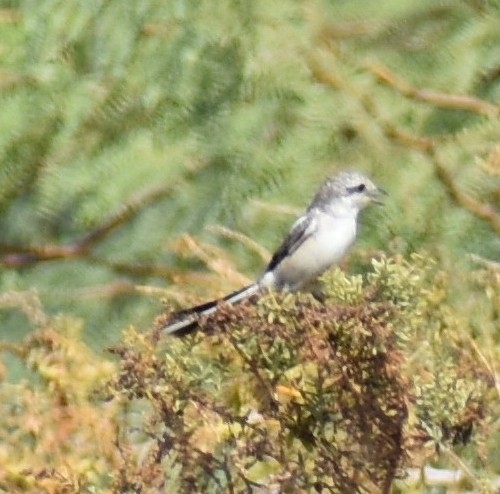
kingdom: Animalia
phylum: Chordata
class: Aves
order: Passeriformes
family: Laniidae
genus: Lanius
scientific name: Lanius nubicus
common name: Masked shrike
